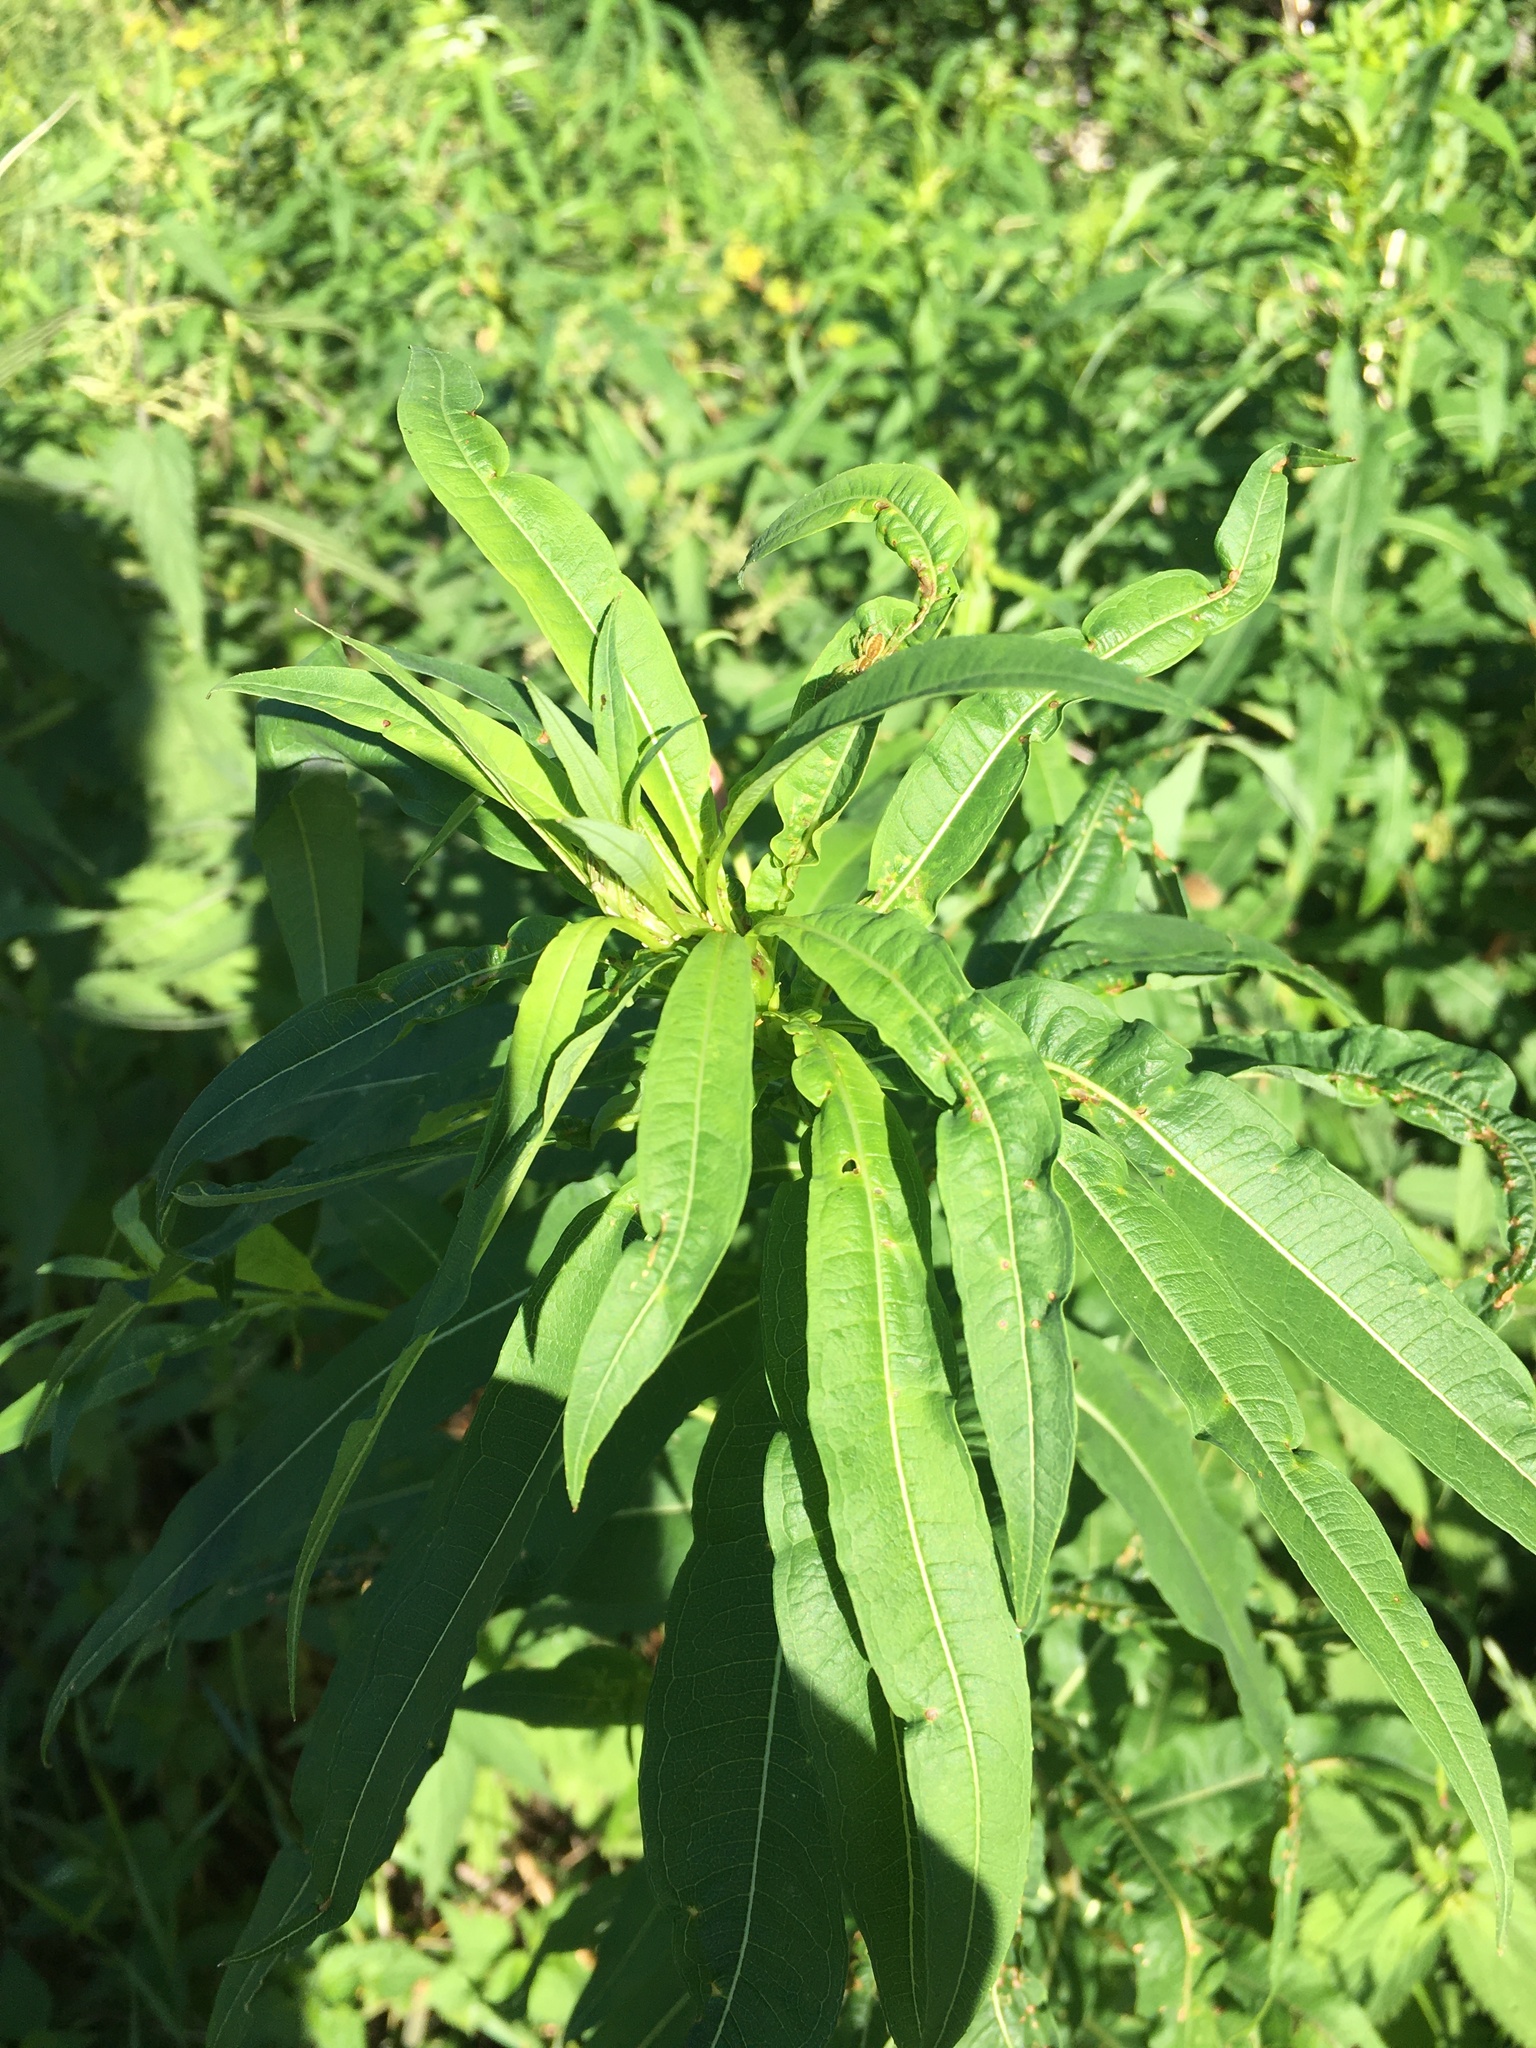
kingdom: Plantae
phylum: Tracheophyta
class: Magnoliopsida
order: Myrtales
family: Onagraceae
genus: Chamaenerion
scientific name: Chamaenerion angustifolium
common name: Fireweed
